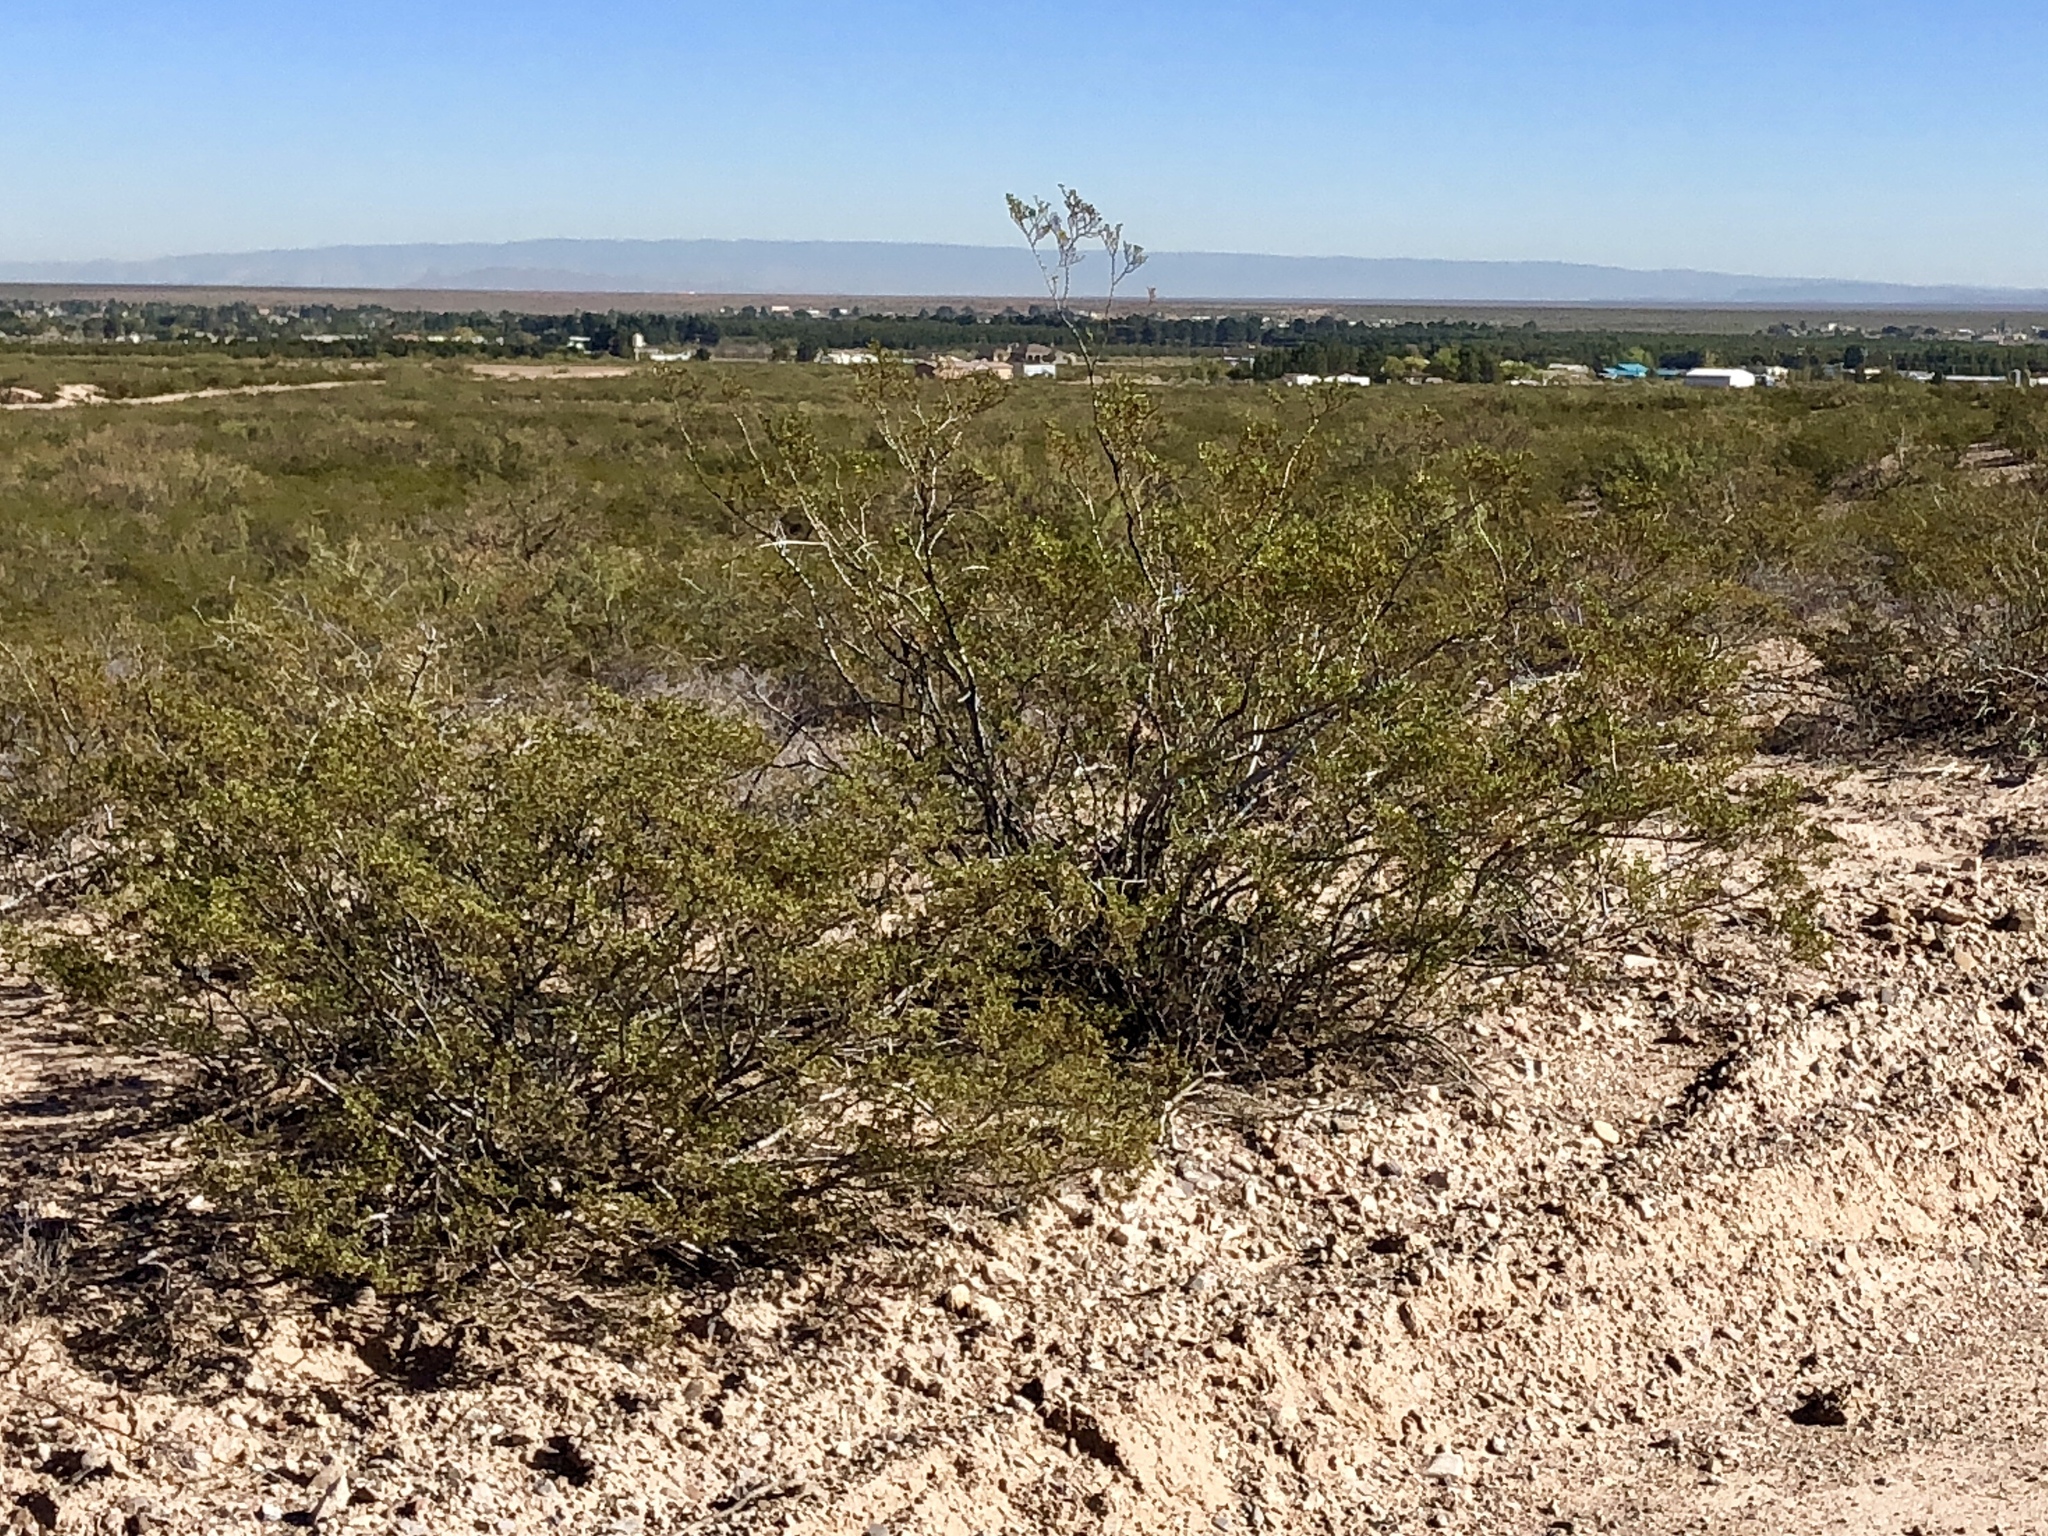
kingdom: Plantae
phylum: Tracheophyta
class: Magnoliopsida
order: Zygophyllales
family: Zygophyllaceae
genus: Larrea
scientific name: Larrea tridentata
